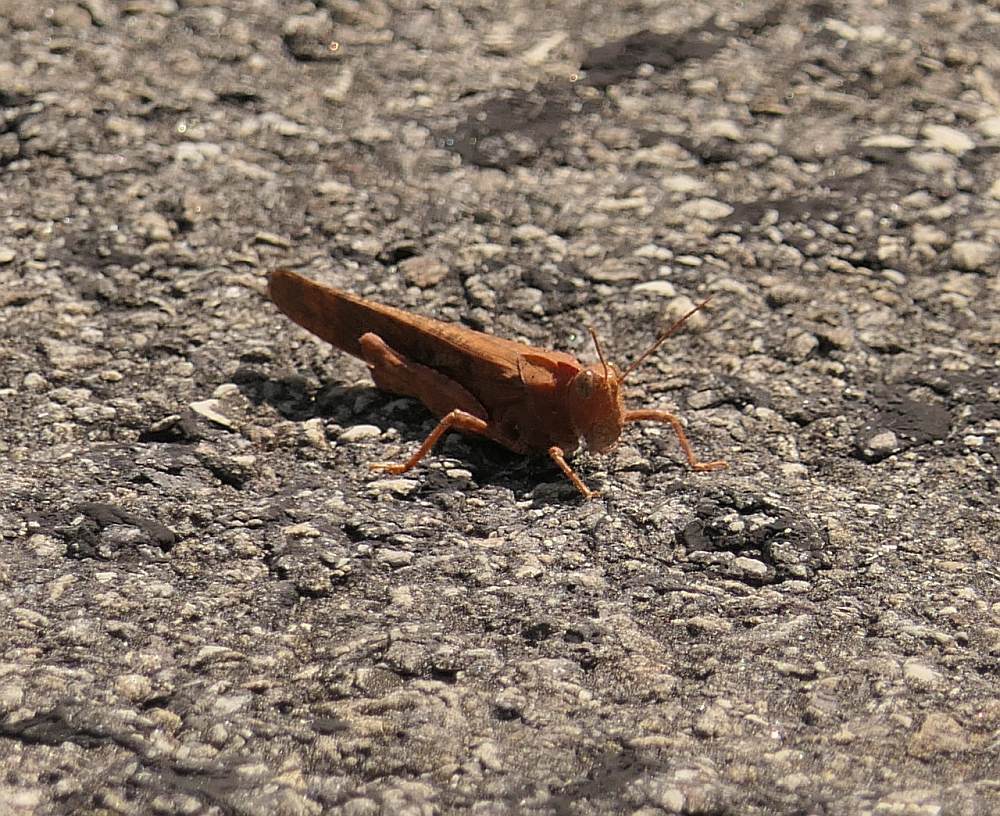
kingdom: Animalia
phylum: Arthropoda
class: Insecta
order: Orthoptera
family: Acrididae
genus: Dissosteira
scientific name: Dissosteira carolina
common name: Carolina grasshopper
